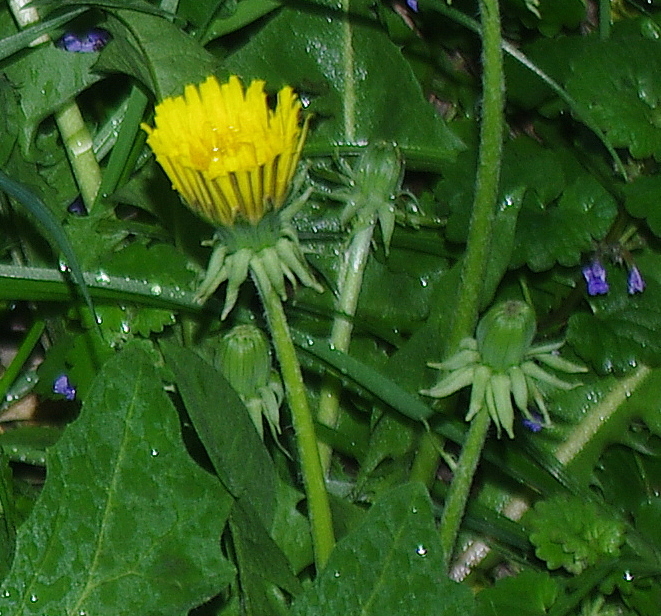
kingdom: Plantae
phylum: Tracheophyta
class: Magnoliopsida
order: Asterales
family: Asteraceae
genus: Taraxacum
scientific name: Taraxacum officinale
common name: Common dandelion
